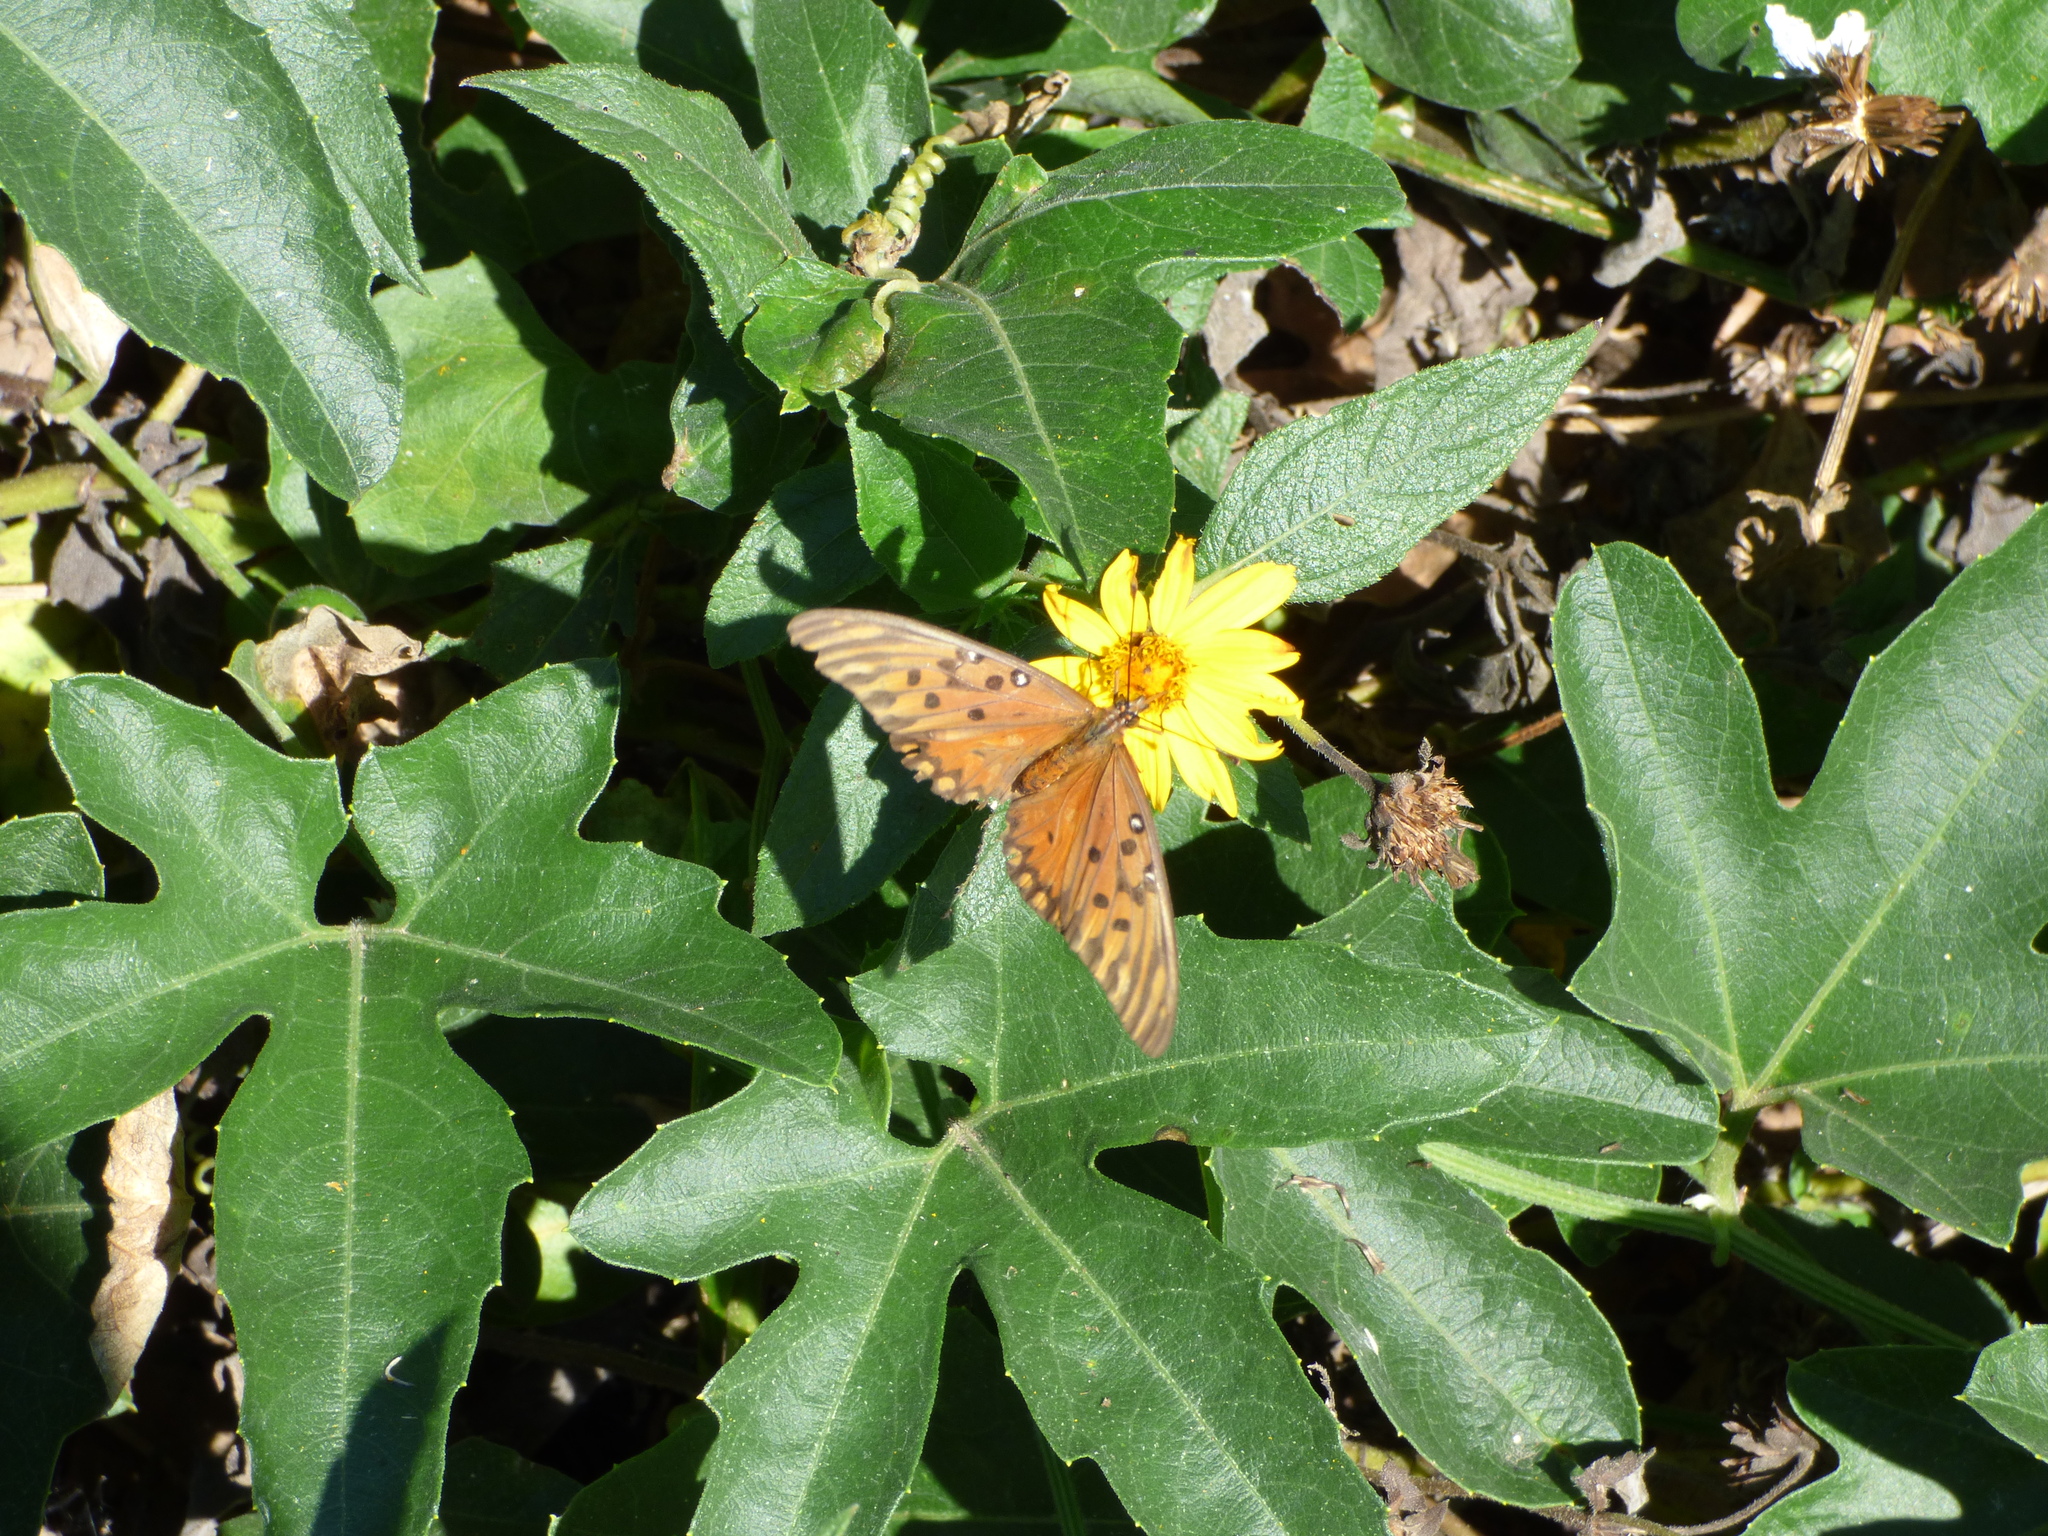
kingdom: Animalia
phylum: Arthropoda
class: Insecta
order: Lepidoptera
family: Nymphalidae
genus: Dione
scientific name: Dione vanillae
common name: Gulf fritillary
